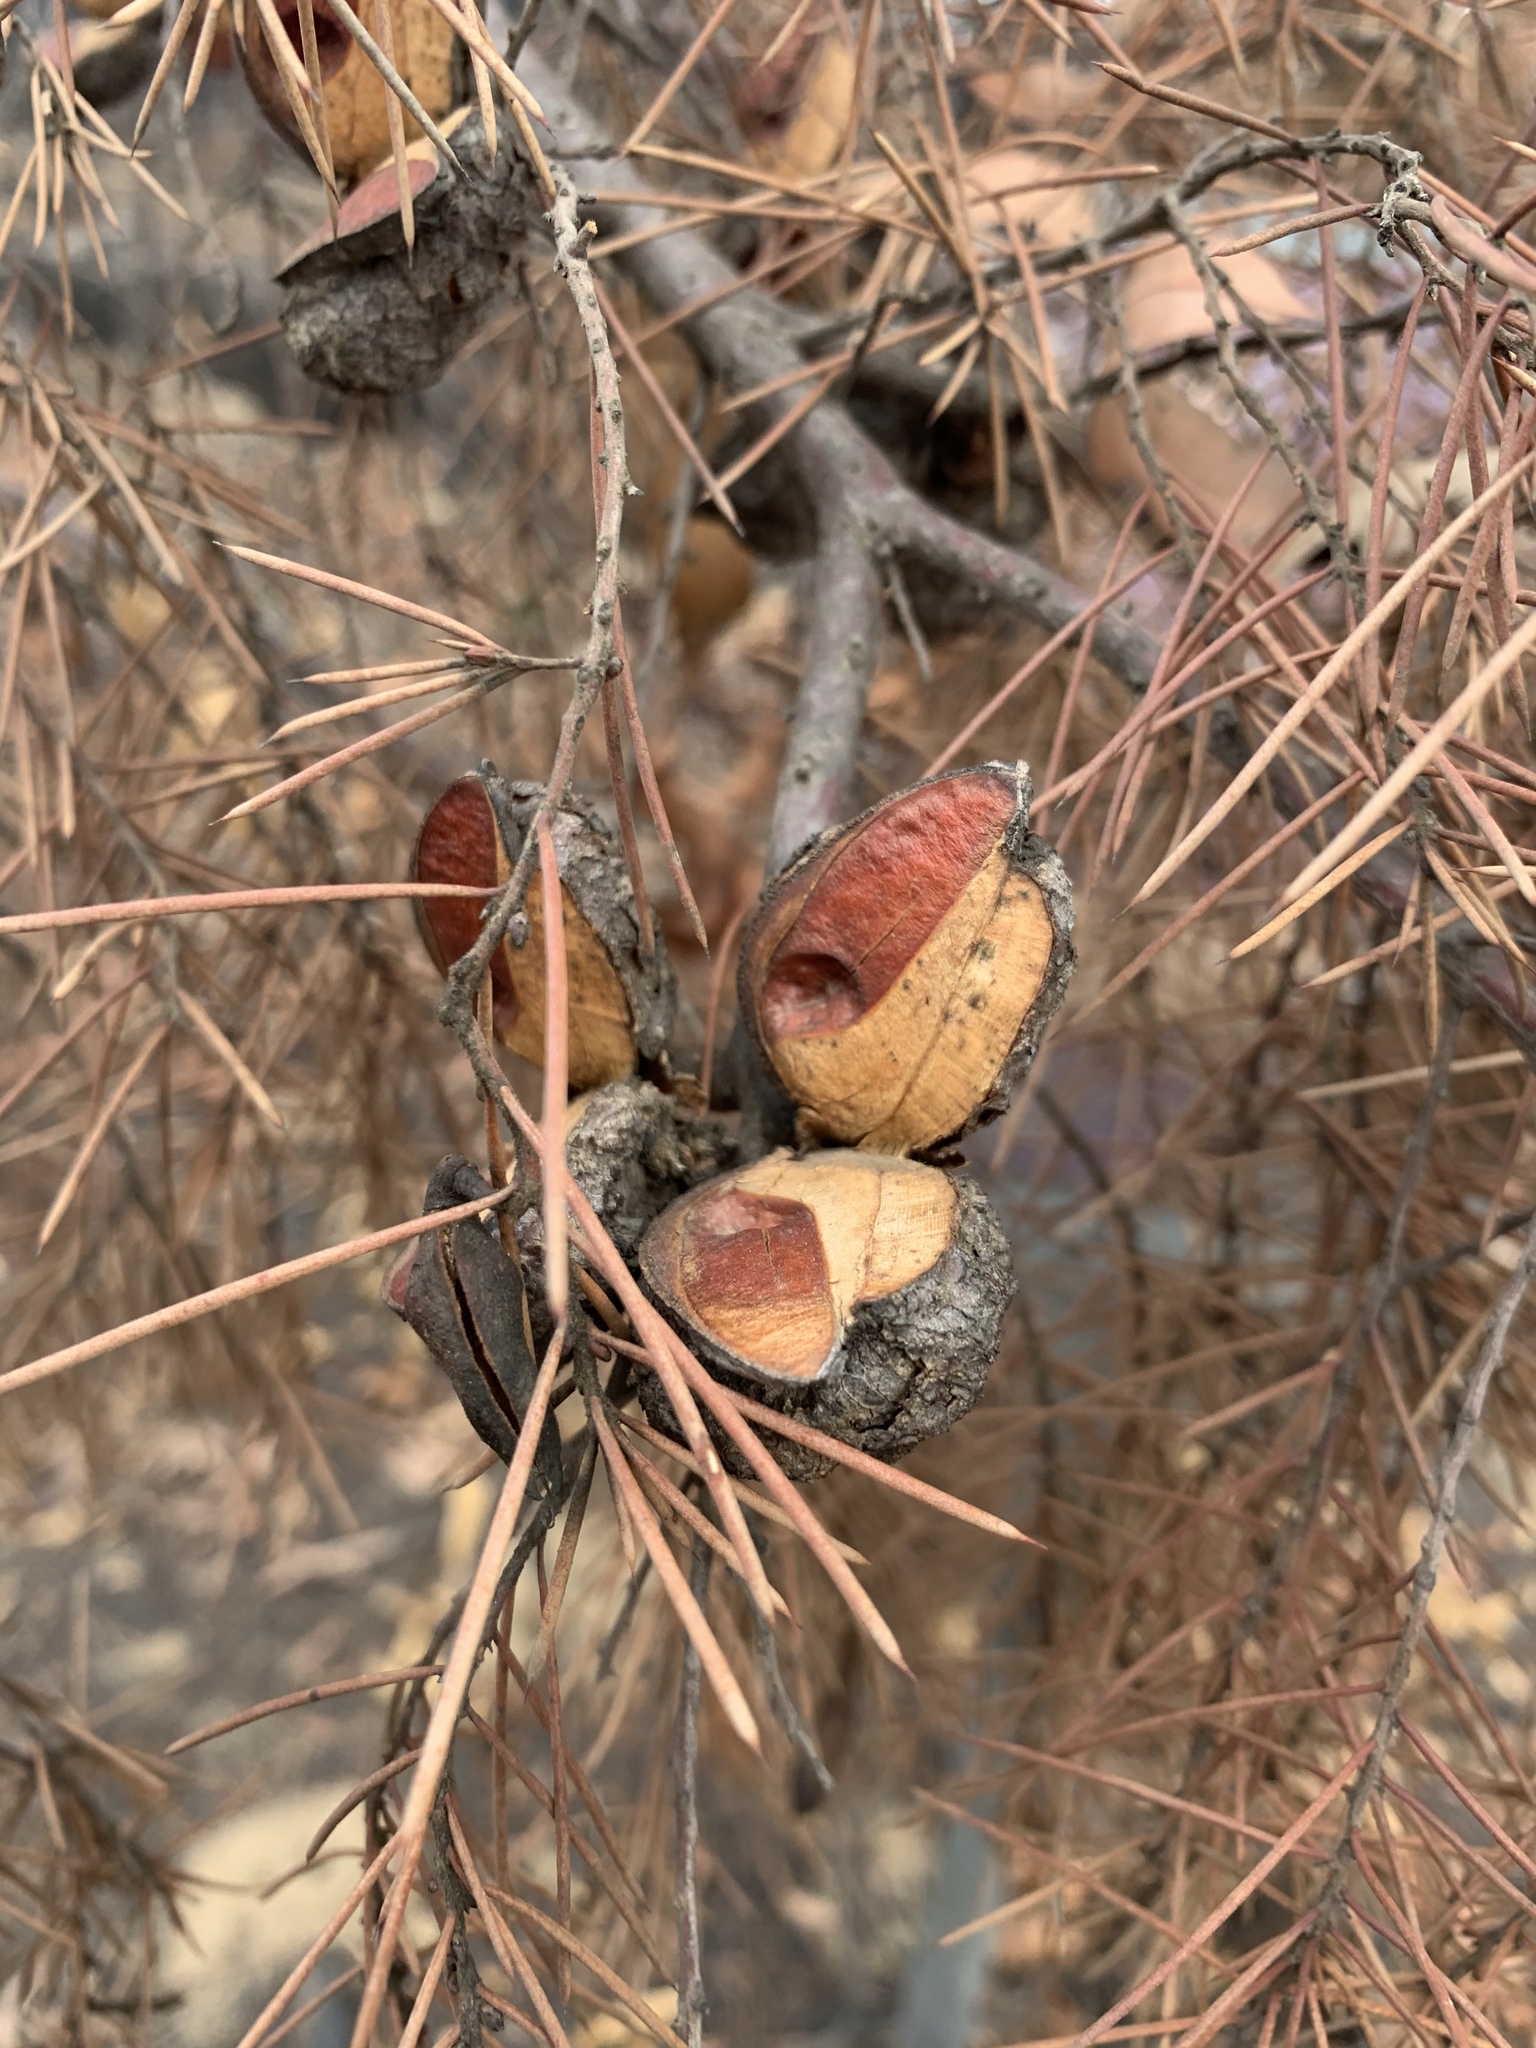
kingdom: Plantae
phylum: Tracheophyta
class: Magnoliopsida
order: Proteales
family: Proteaceae
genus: Hakea
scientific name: Hakea sericea
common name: Needle bush
